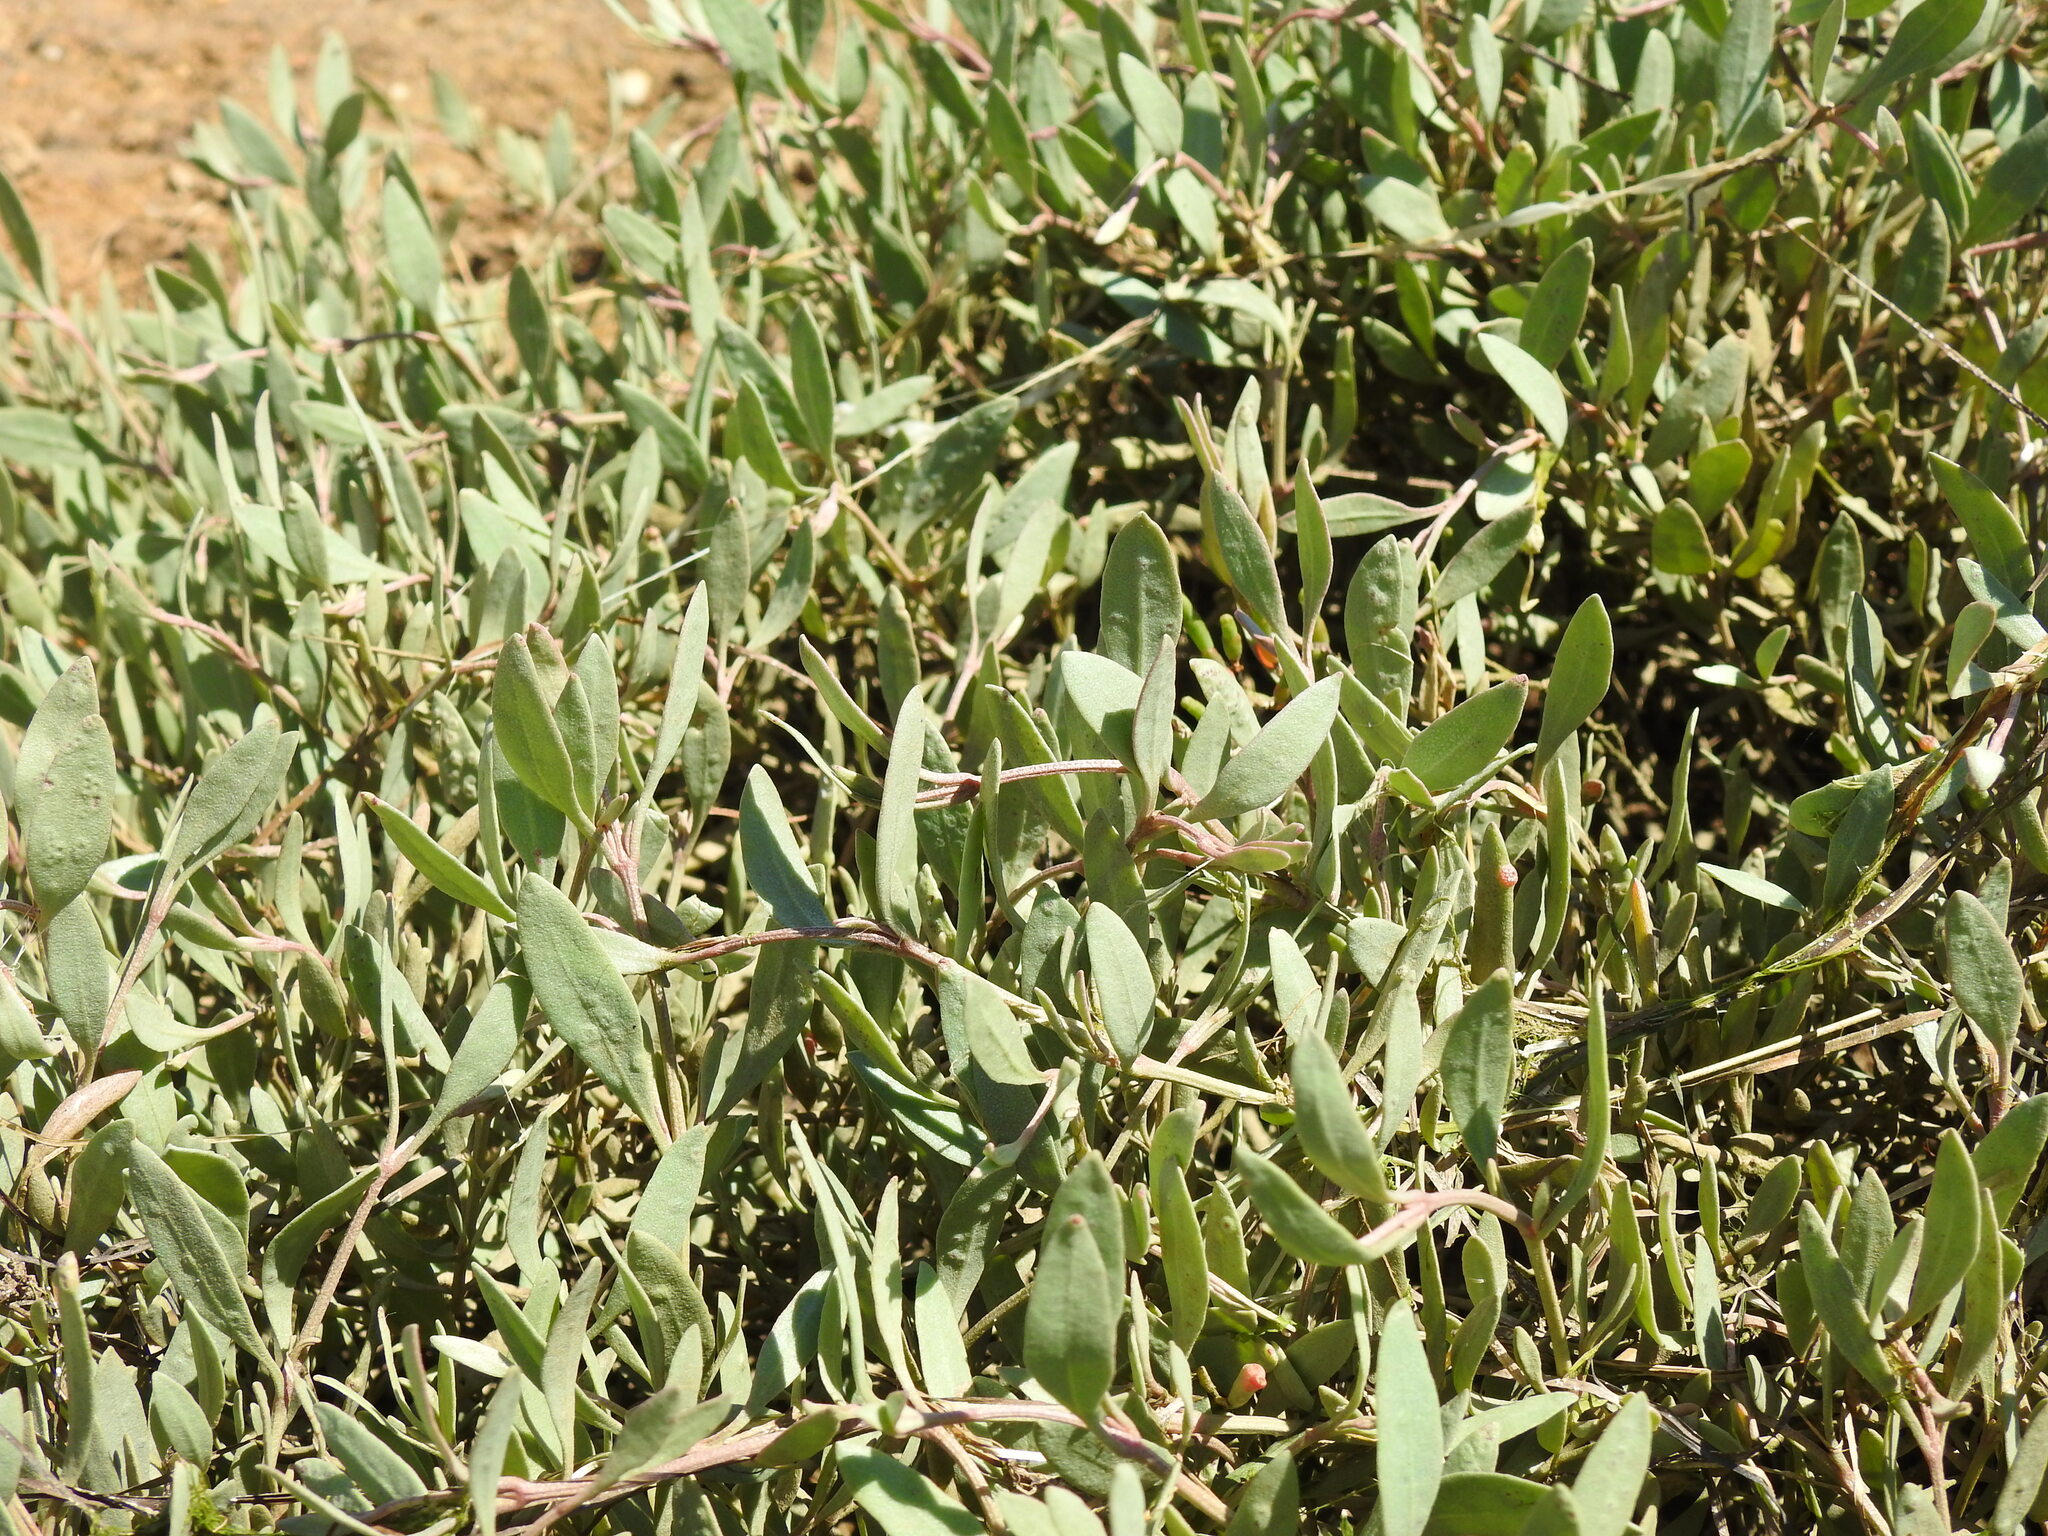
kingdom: Plantae
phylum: Tracheophyta
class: Magnoliopsida
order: Caryophyllales
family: Amaranthaceae
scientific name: Amaranthaceae
